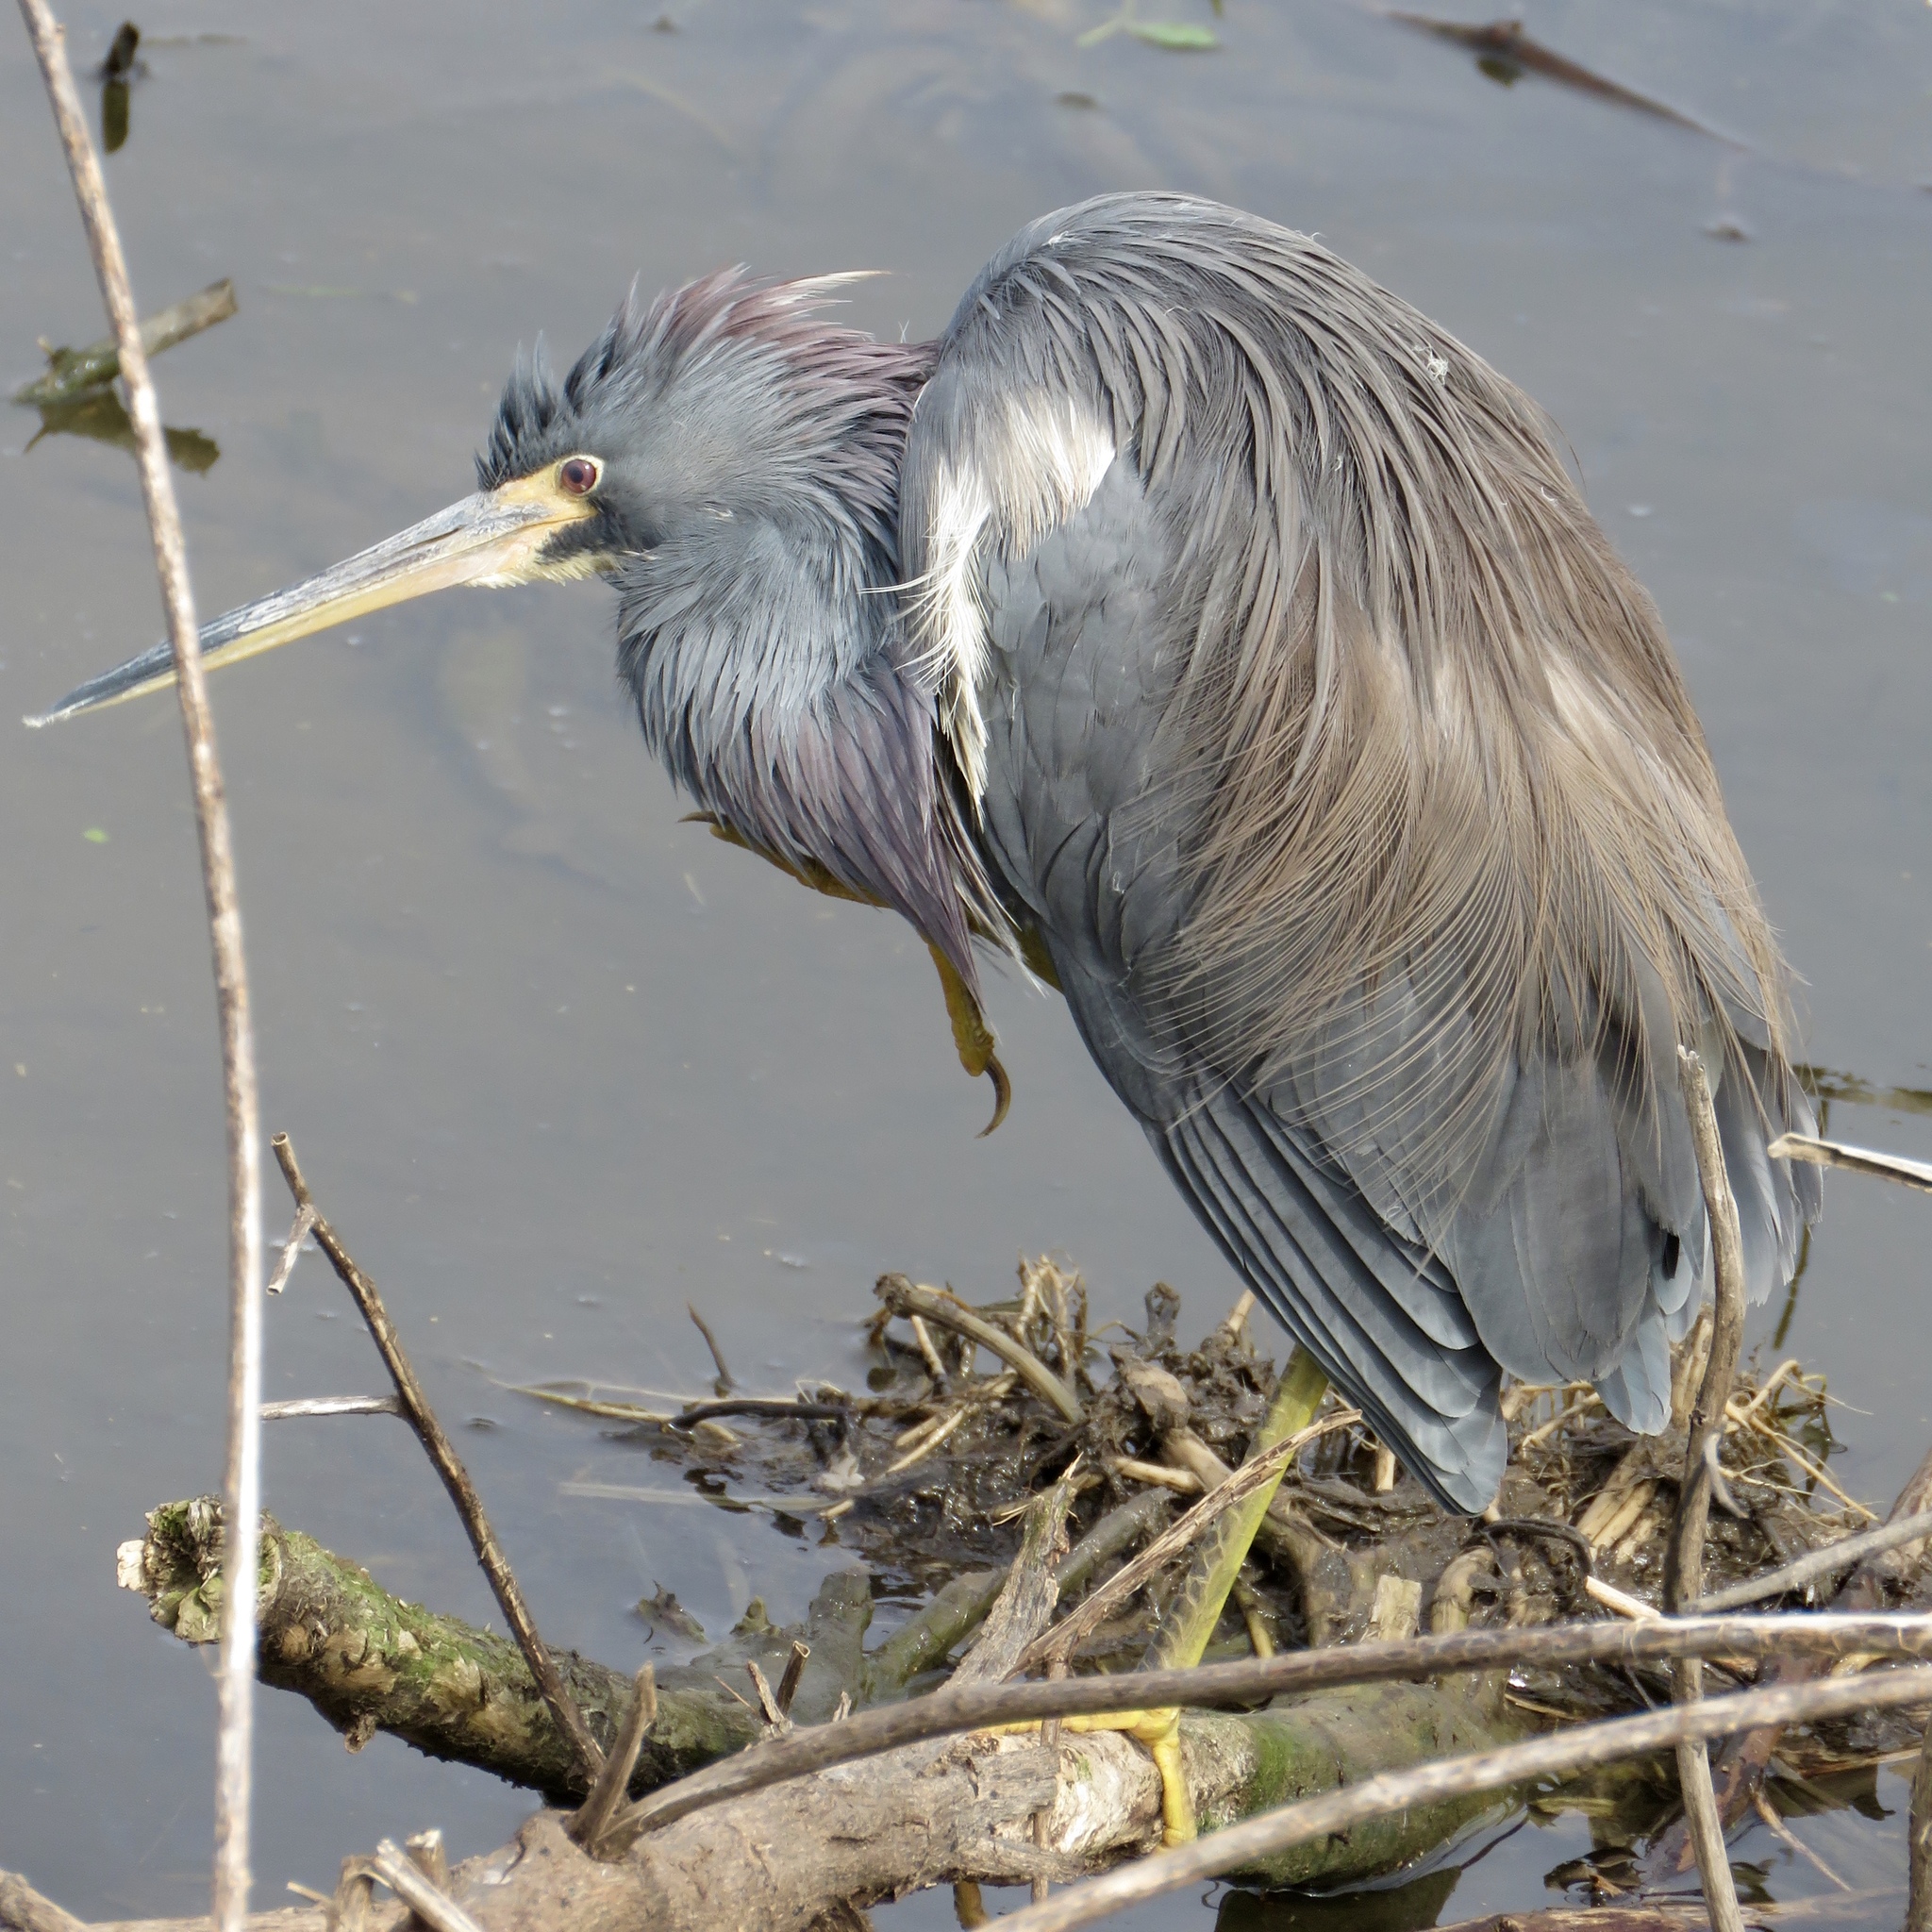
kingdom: Animalia
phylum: Chordata
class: Aves
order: Pelecaniformes
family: Ardeidae
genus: Egretta
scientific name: Egretta tricolor
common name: Tricolored heron
